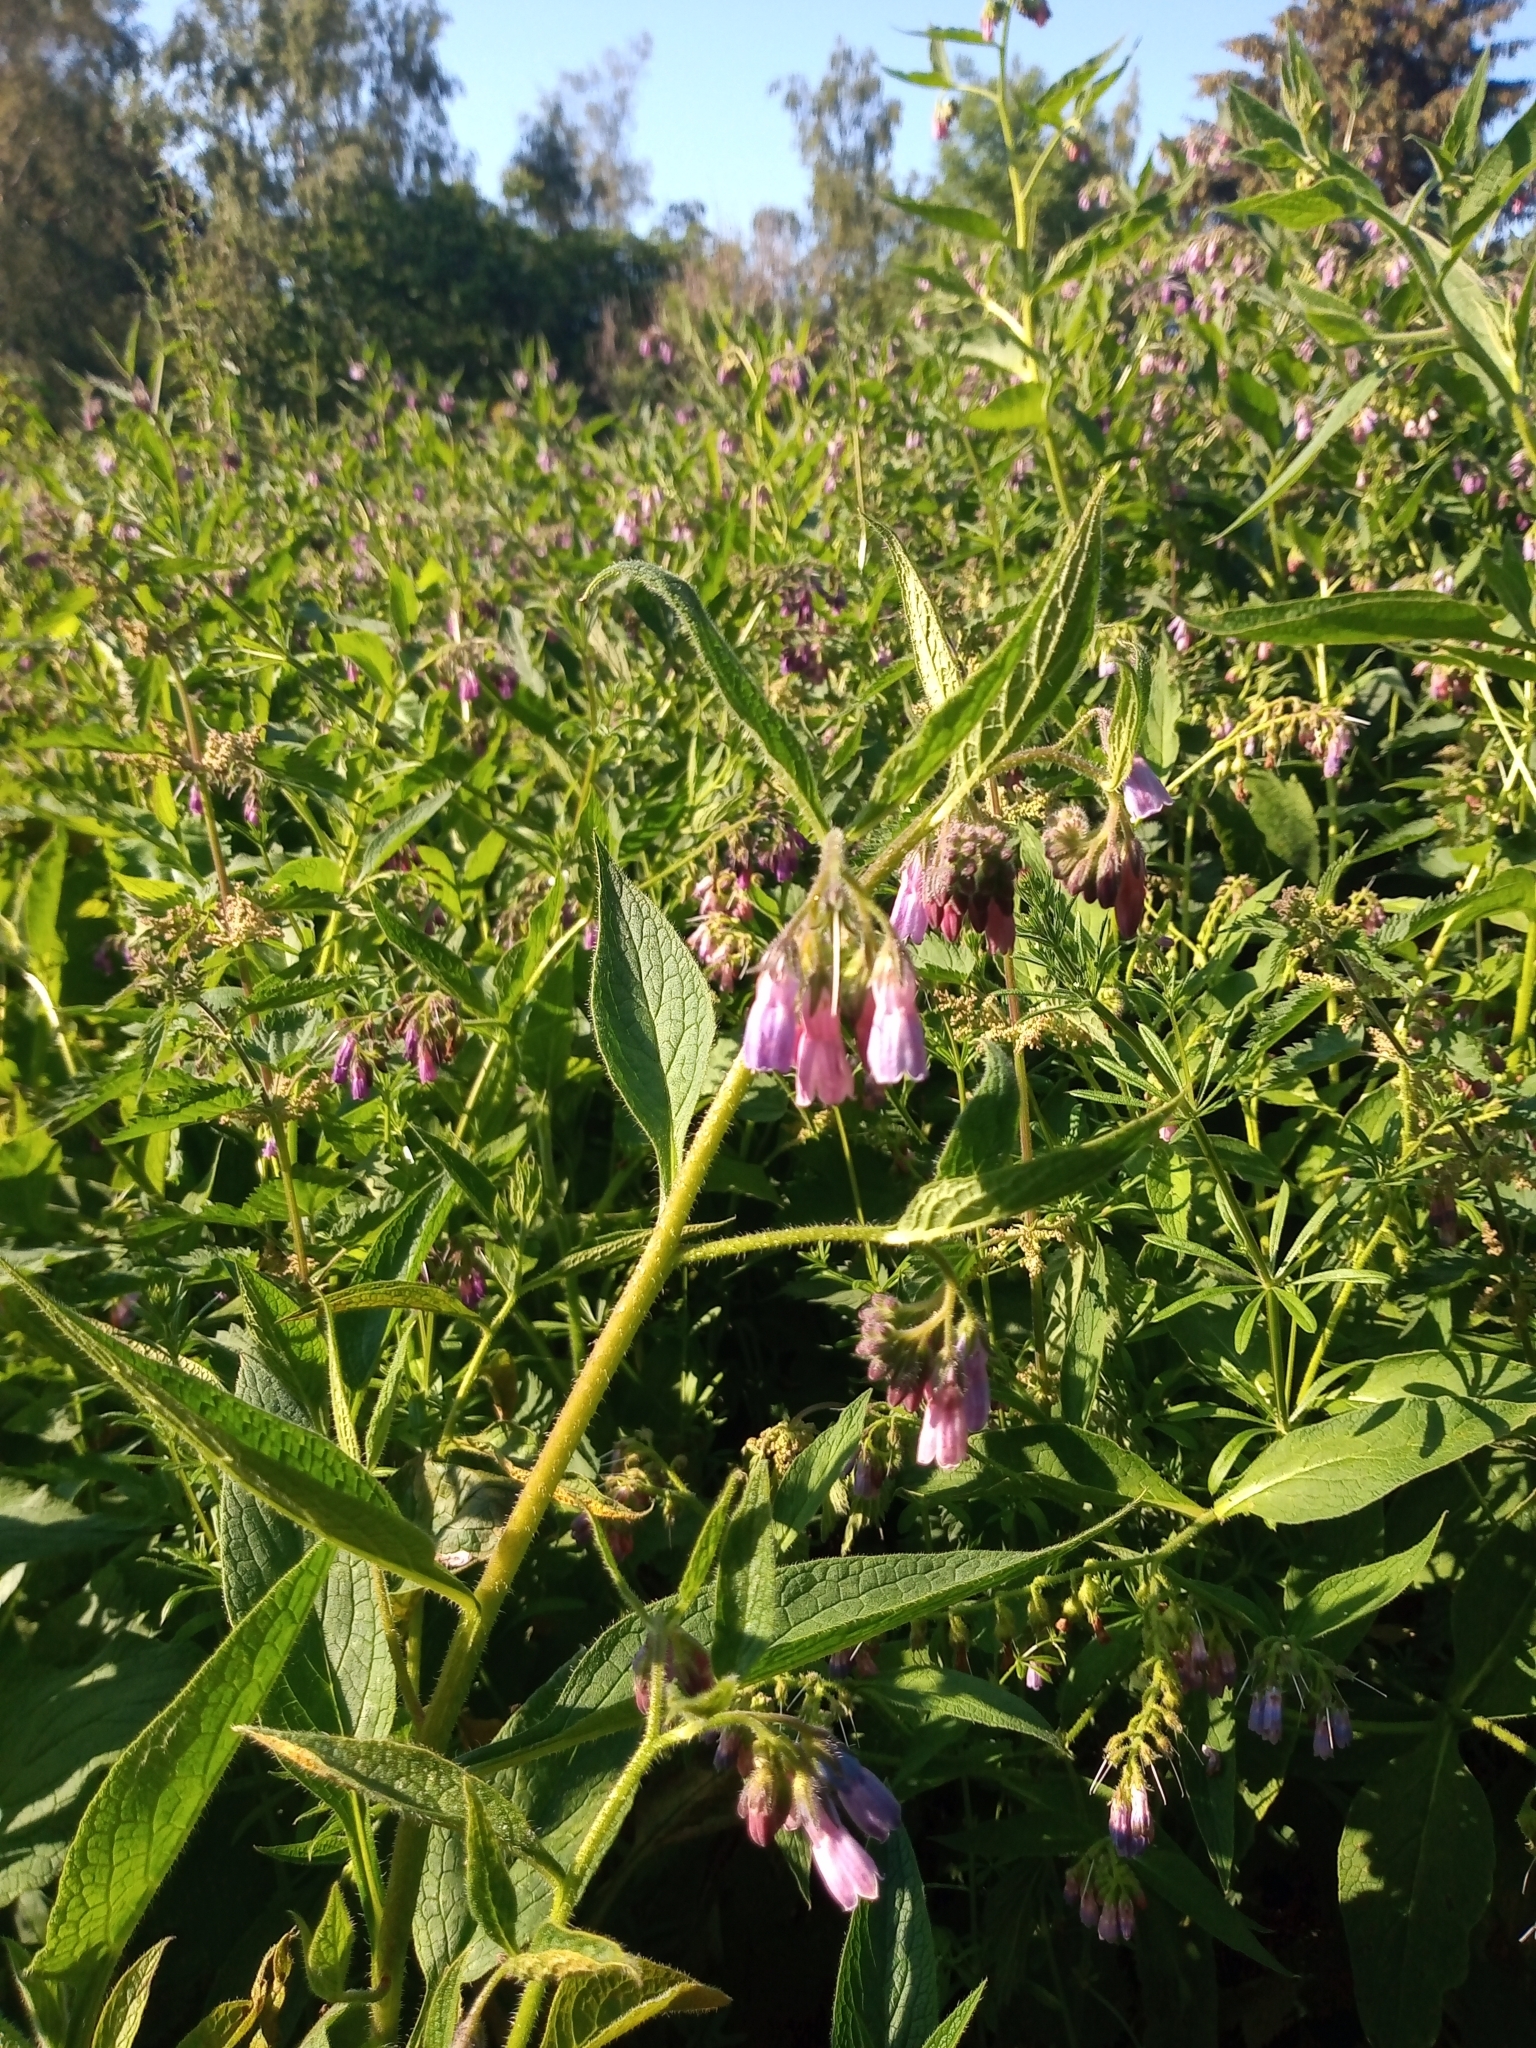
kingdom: Plantae
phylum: Tracheophyta
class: Magnoliopsida
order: Boraginales
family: Boraginaceae
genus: Symphytum
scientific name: Symphytum uplandicum
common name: Russian comfrey
